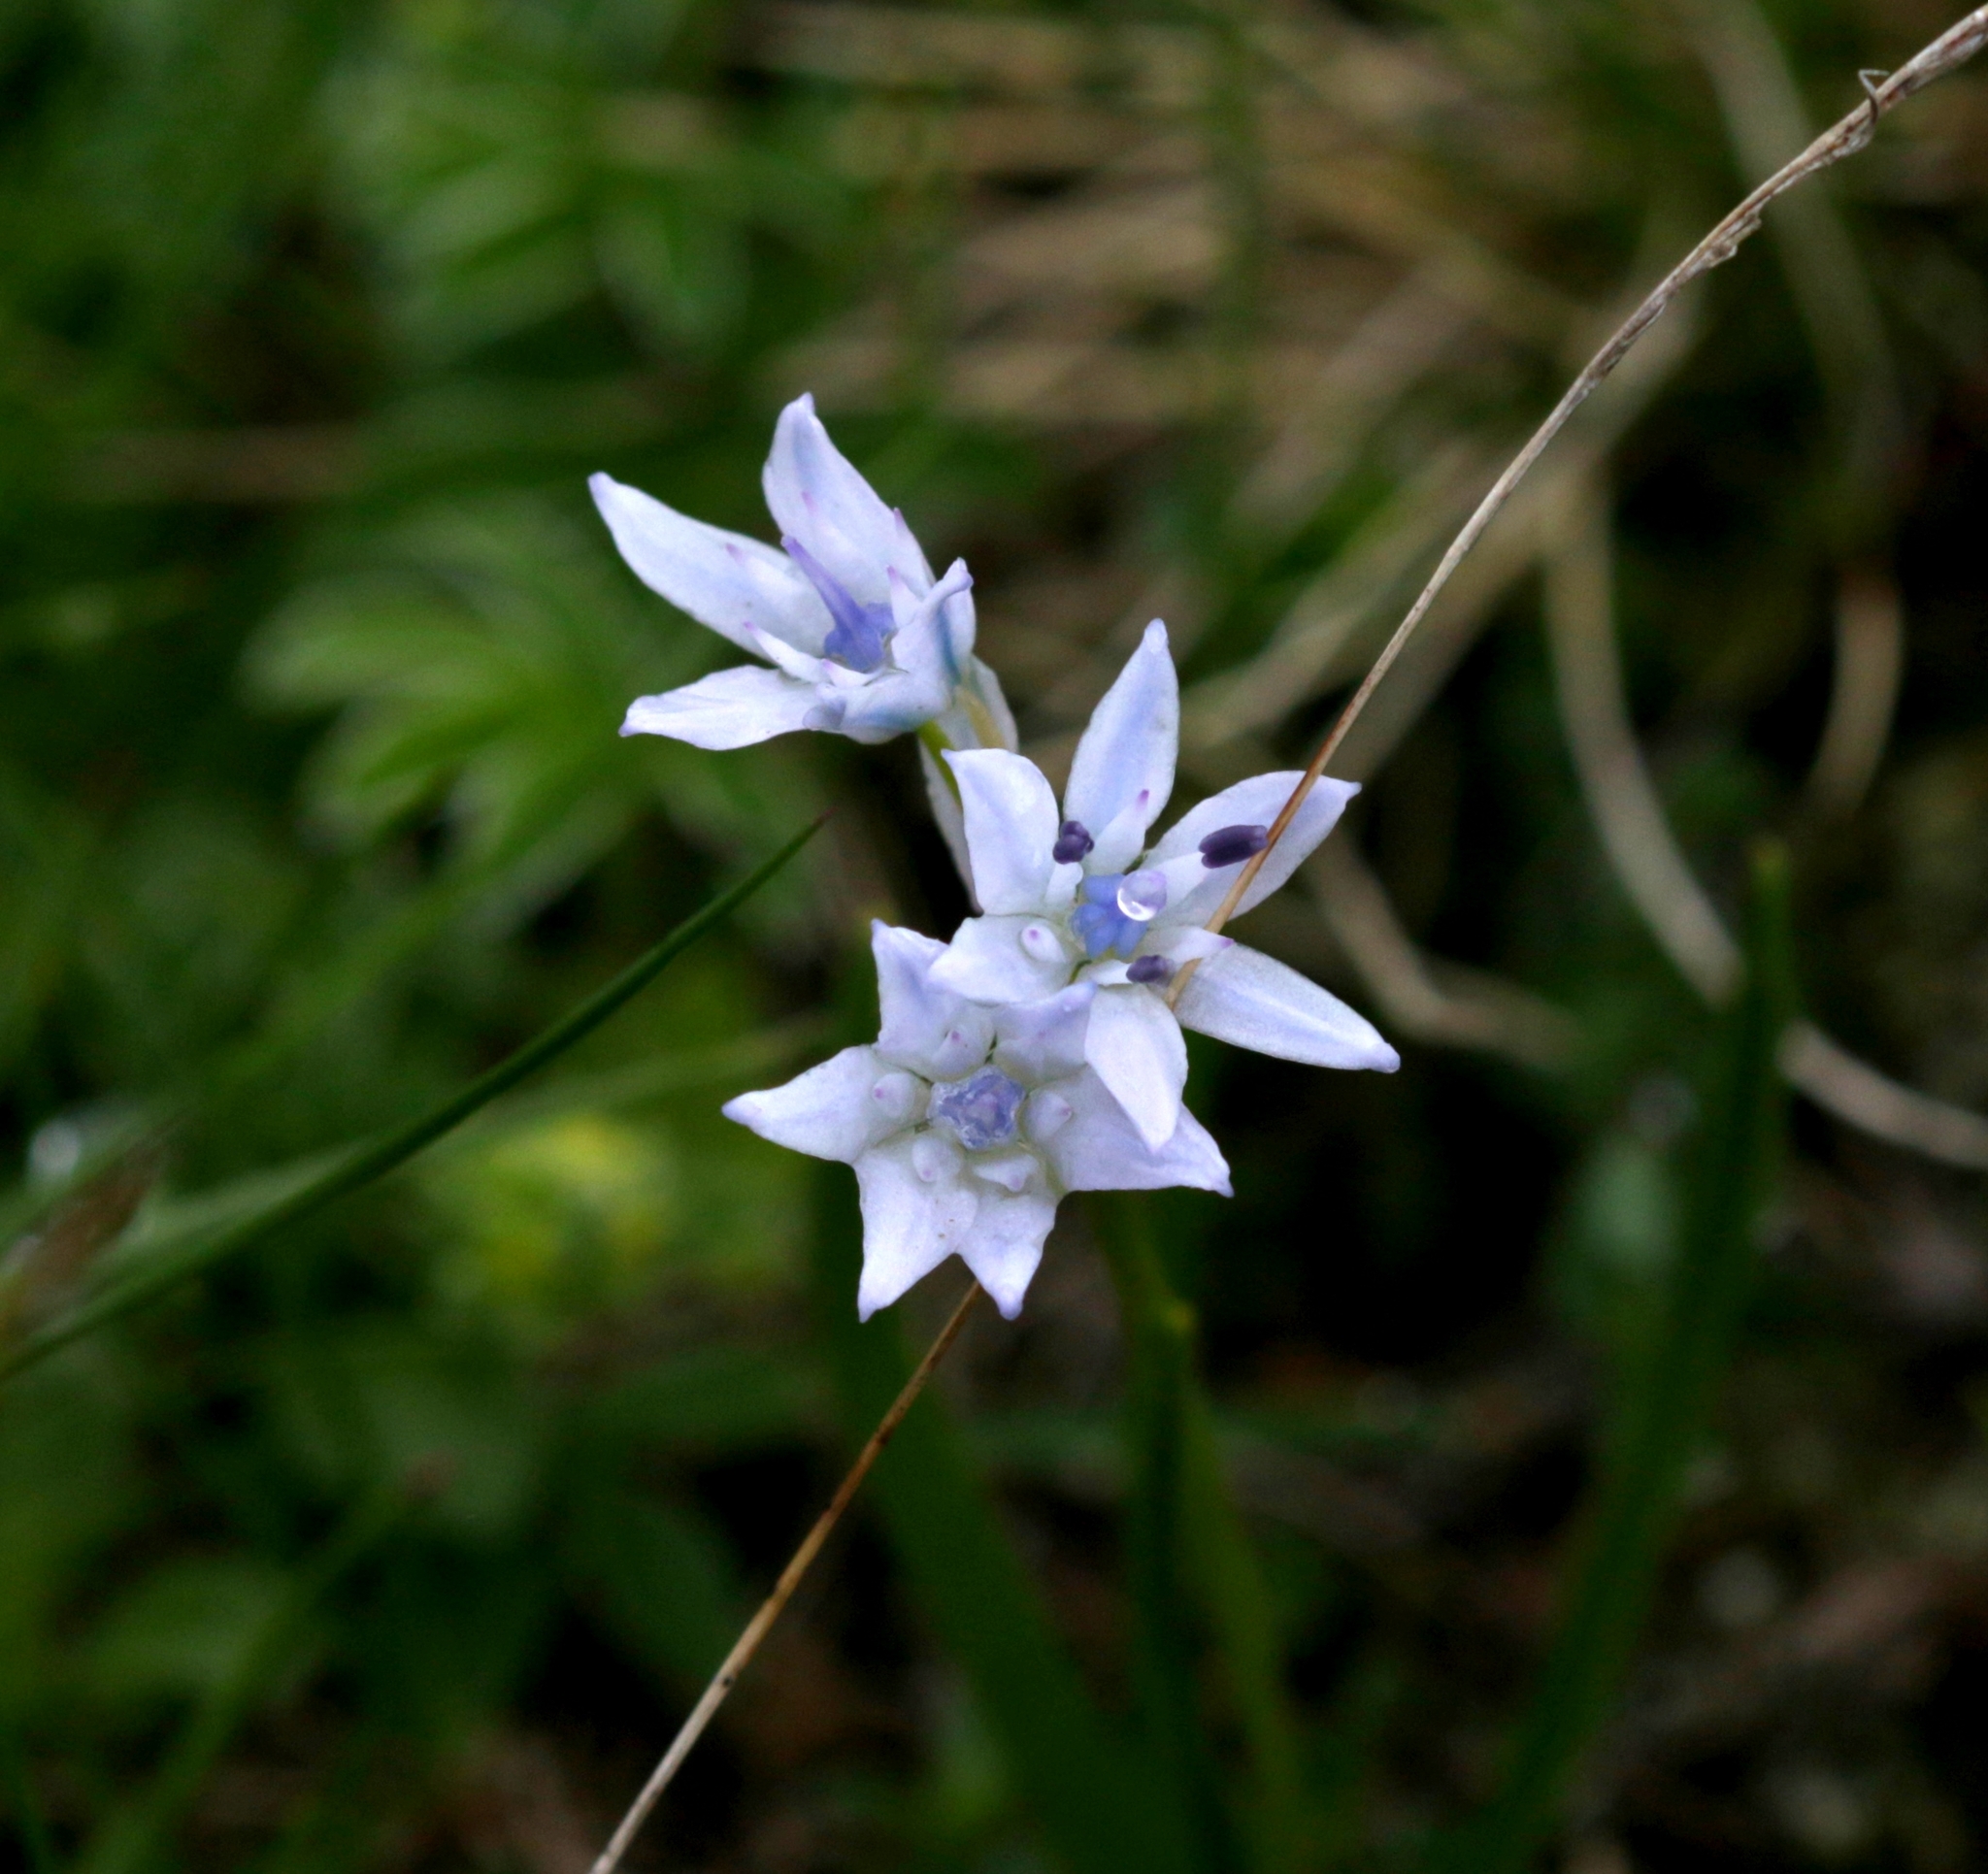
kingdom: Plantae
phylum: Tracheophyta
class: Liliopsida
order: Asparagales
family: Asparagaceae
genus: Scilla
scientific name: Scilla lilio-hyacinthus
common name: Pyrenean squill
